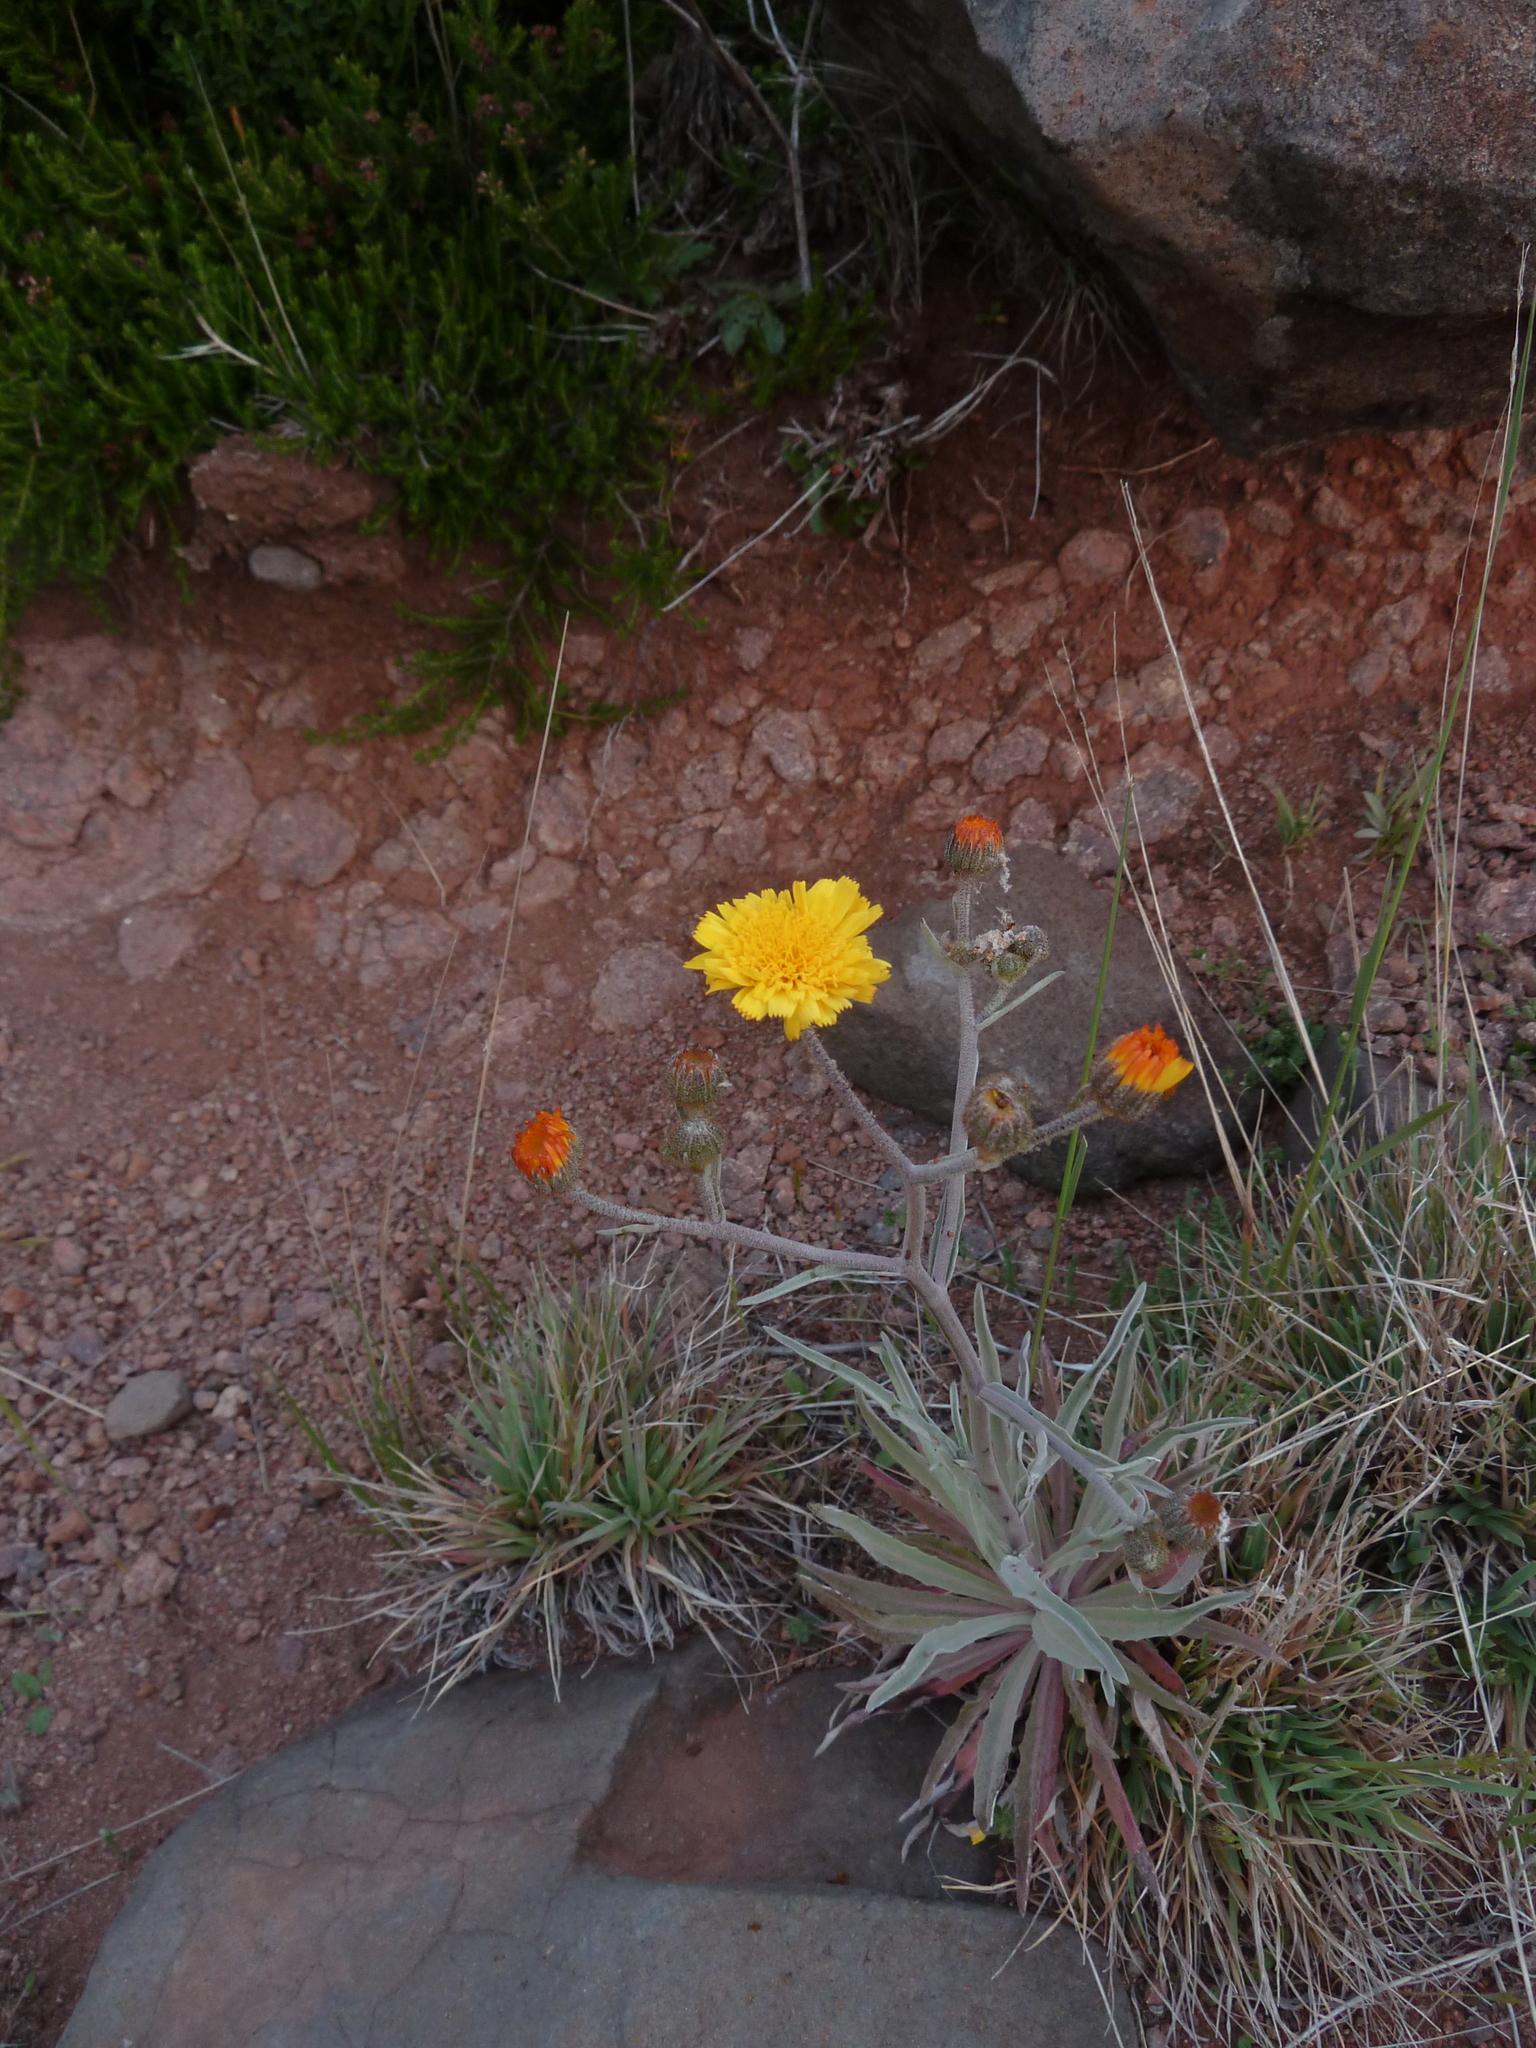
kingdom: Plantae
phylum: Tracheophyta
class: Magnoliopsida
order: Asterales
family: Asteraceae
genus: Andryala
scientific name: Andryala glandulosa
